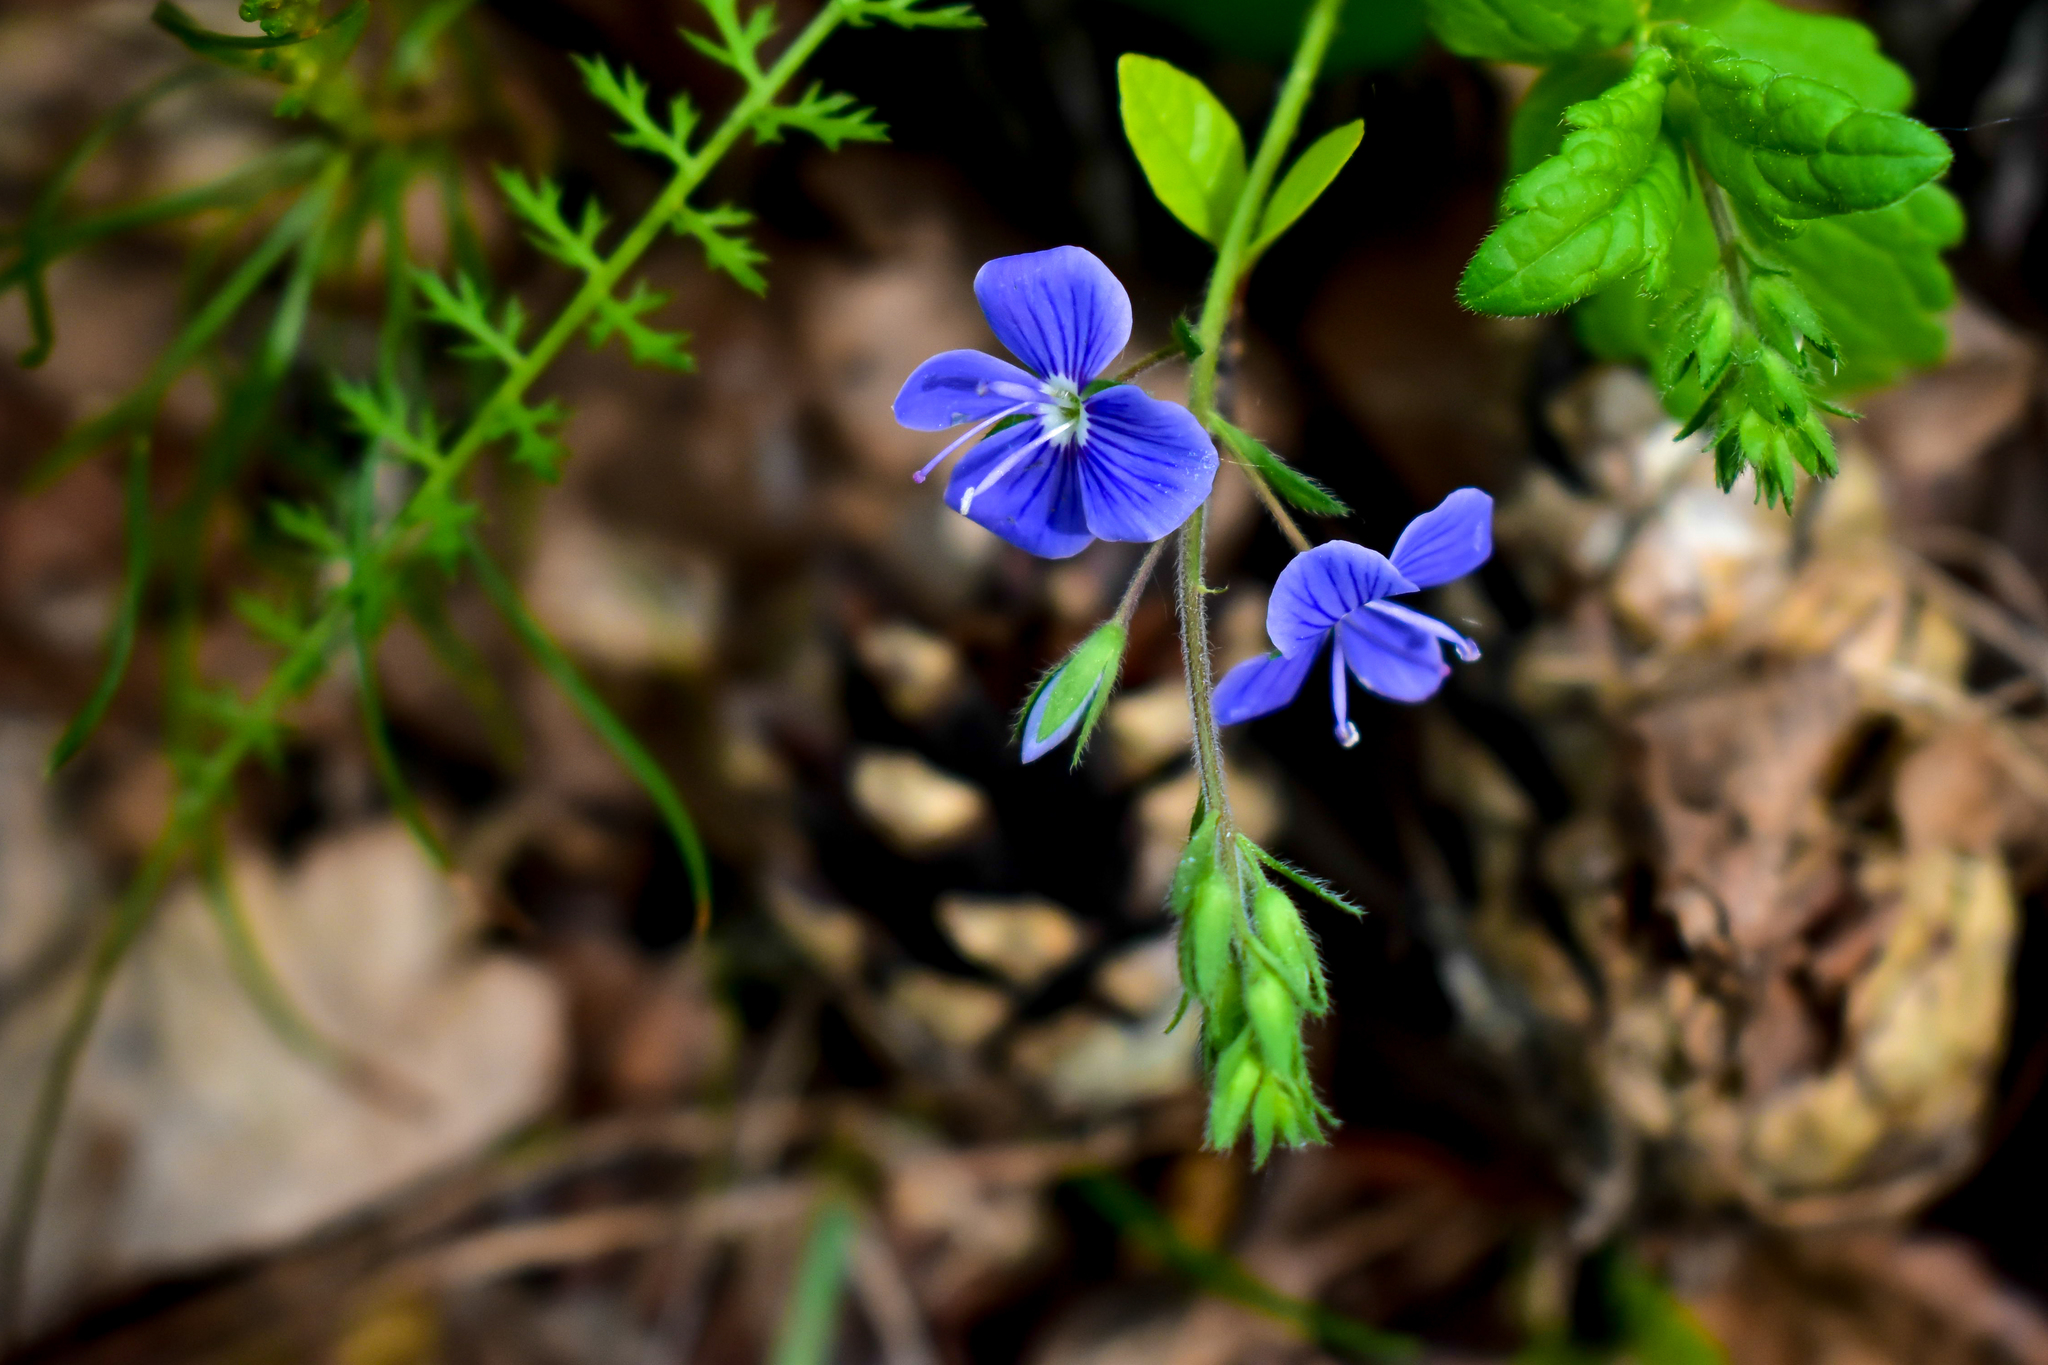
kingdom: Plantae
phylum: Tracheophyta
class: Magnoliopsida
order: Lamiales
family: Plantaginaceae
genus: Veronica
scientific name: Veronica chamaedrys
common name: Germander speedwell
